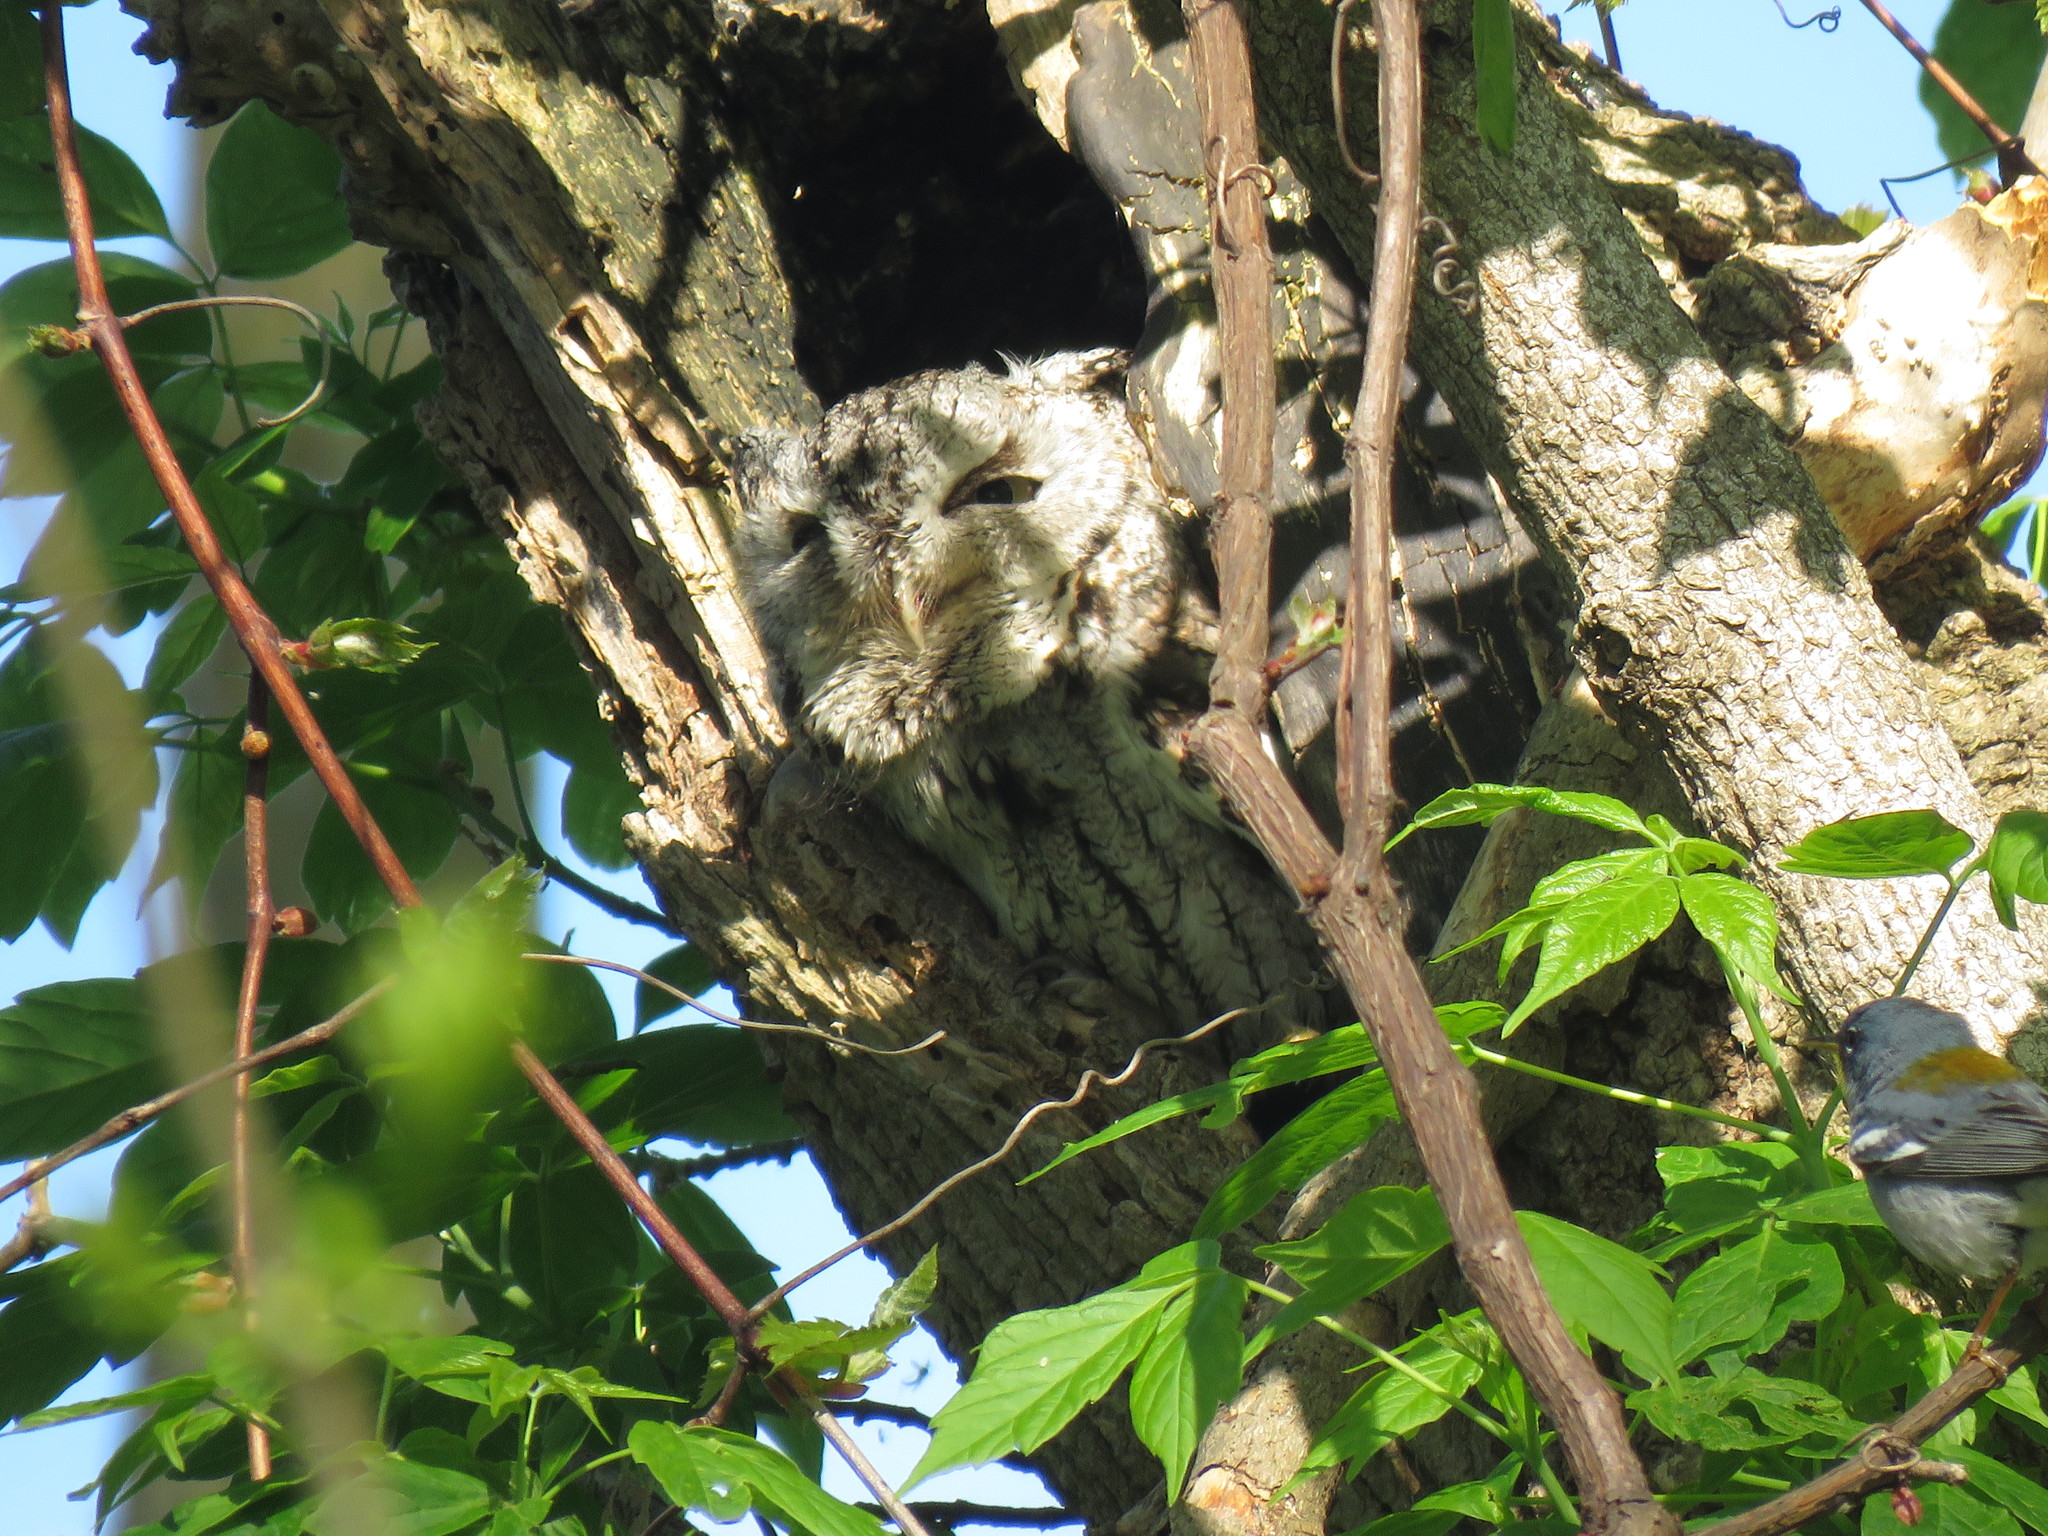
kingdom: Animalia
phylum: Chordata
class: Aves
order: Strigiformes
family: Strigidae
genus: Megascops
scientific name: Megascops asio
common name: Eastern screech-owl
